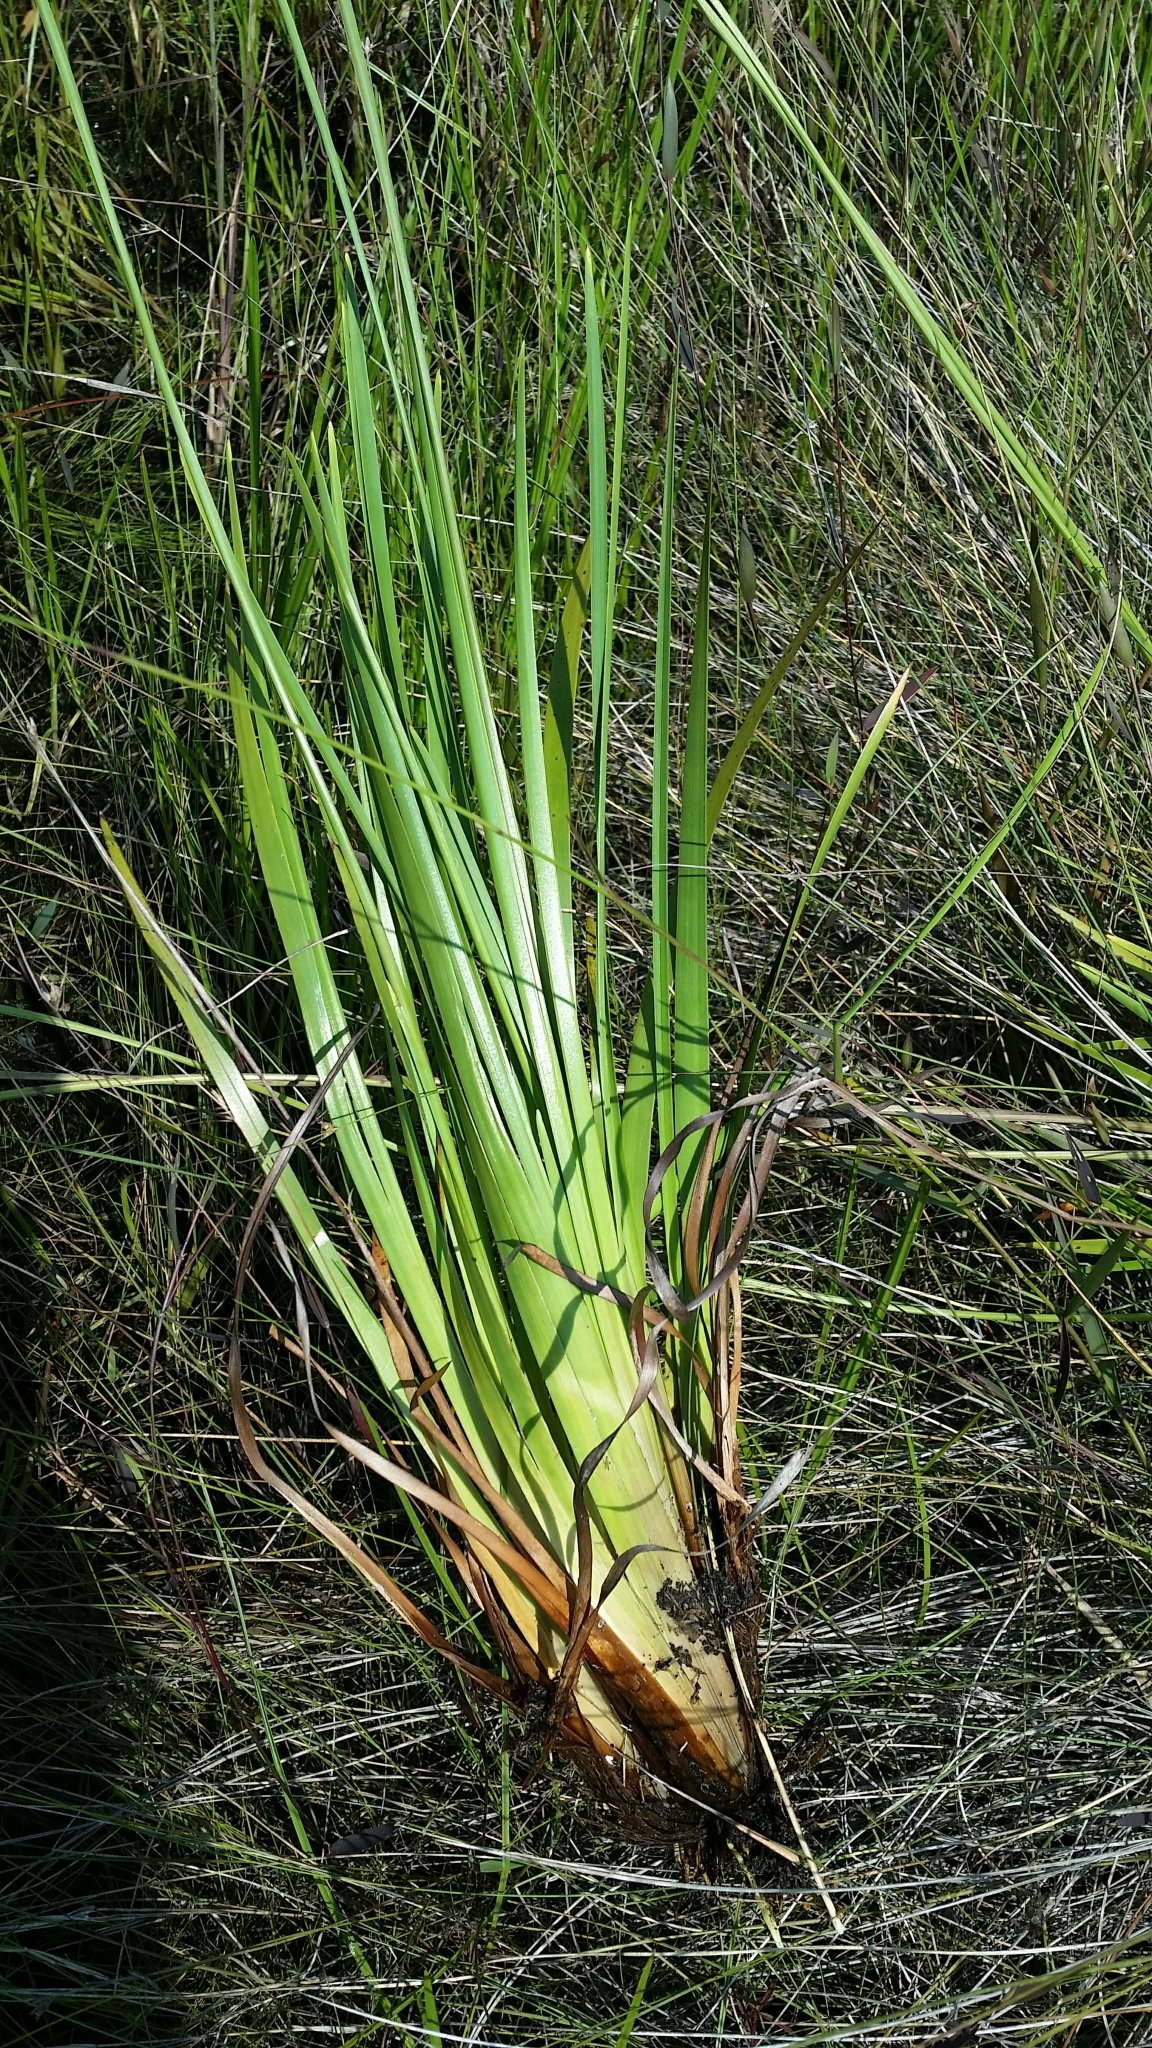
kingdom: Plantae
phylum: Tracheophyta
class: Liliopsida
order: Poales
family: Xyridaceae
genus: Xyris
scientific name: Xyris ambigua
